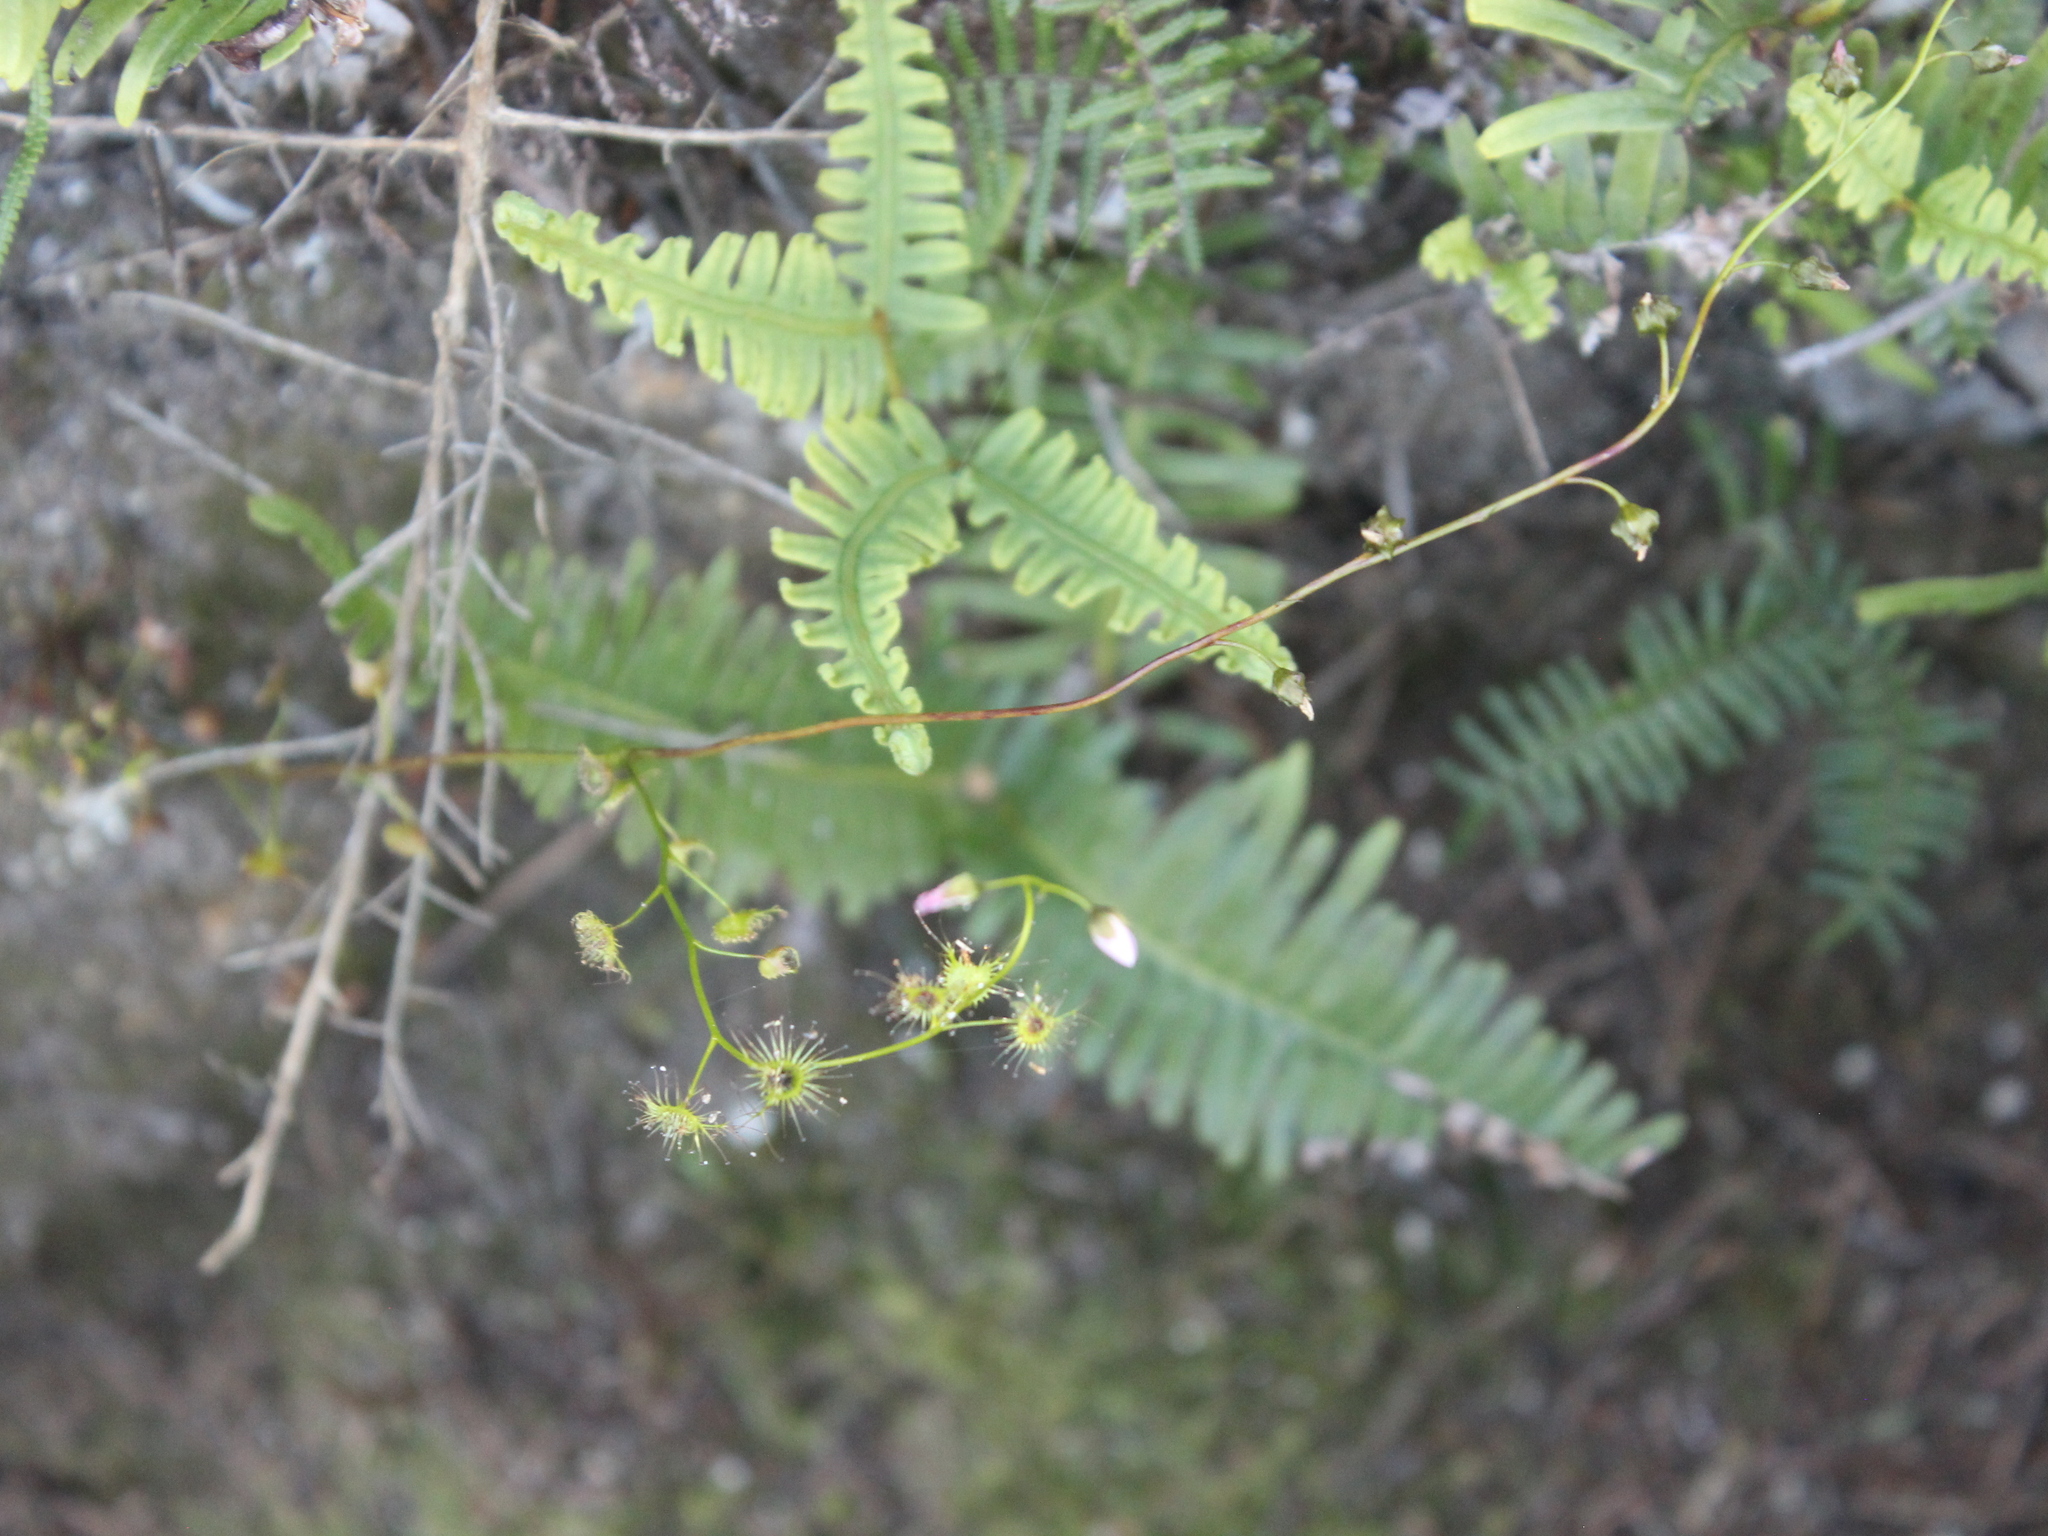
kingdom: Plantae
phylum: Tracheophyta
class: Magnoliopsida
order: Caryophyllales
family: Droseraceae
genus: Drosera
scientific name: Drosera peltata
